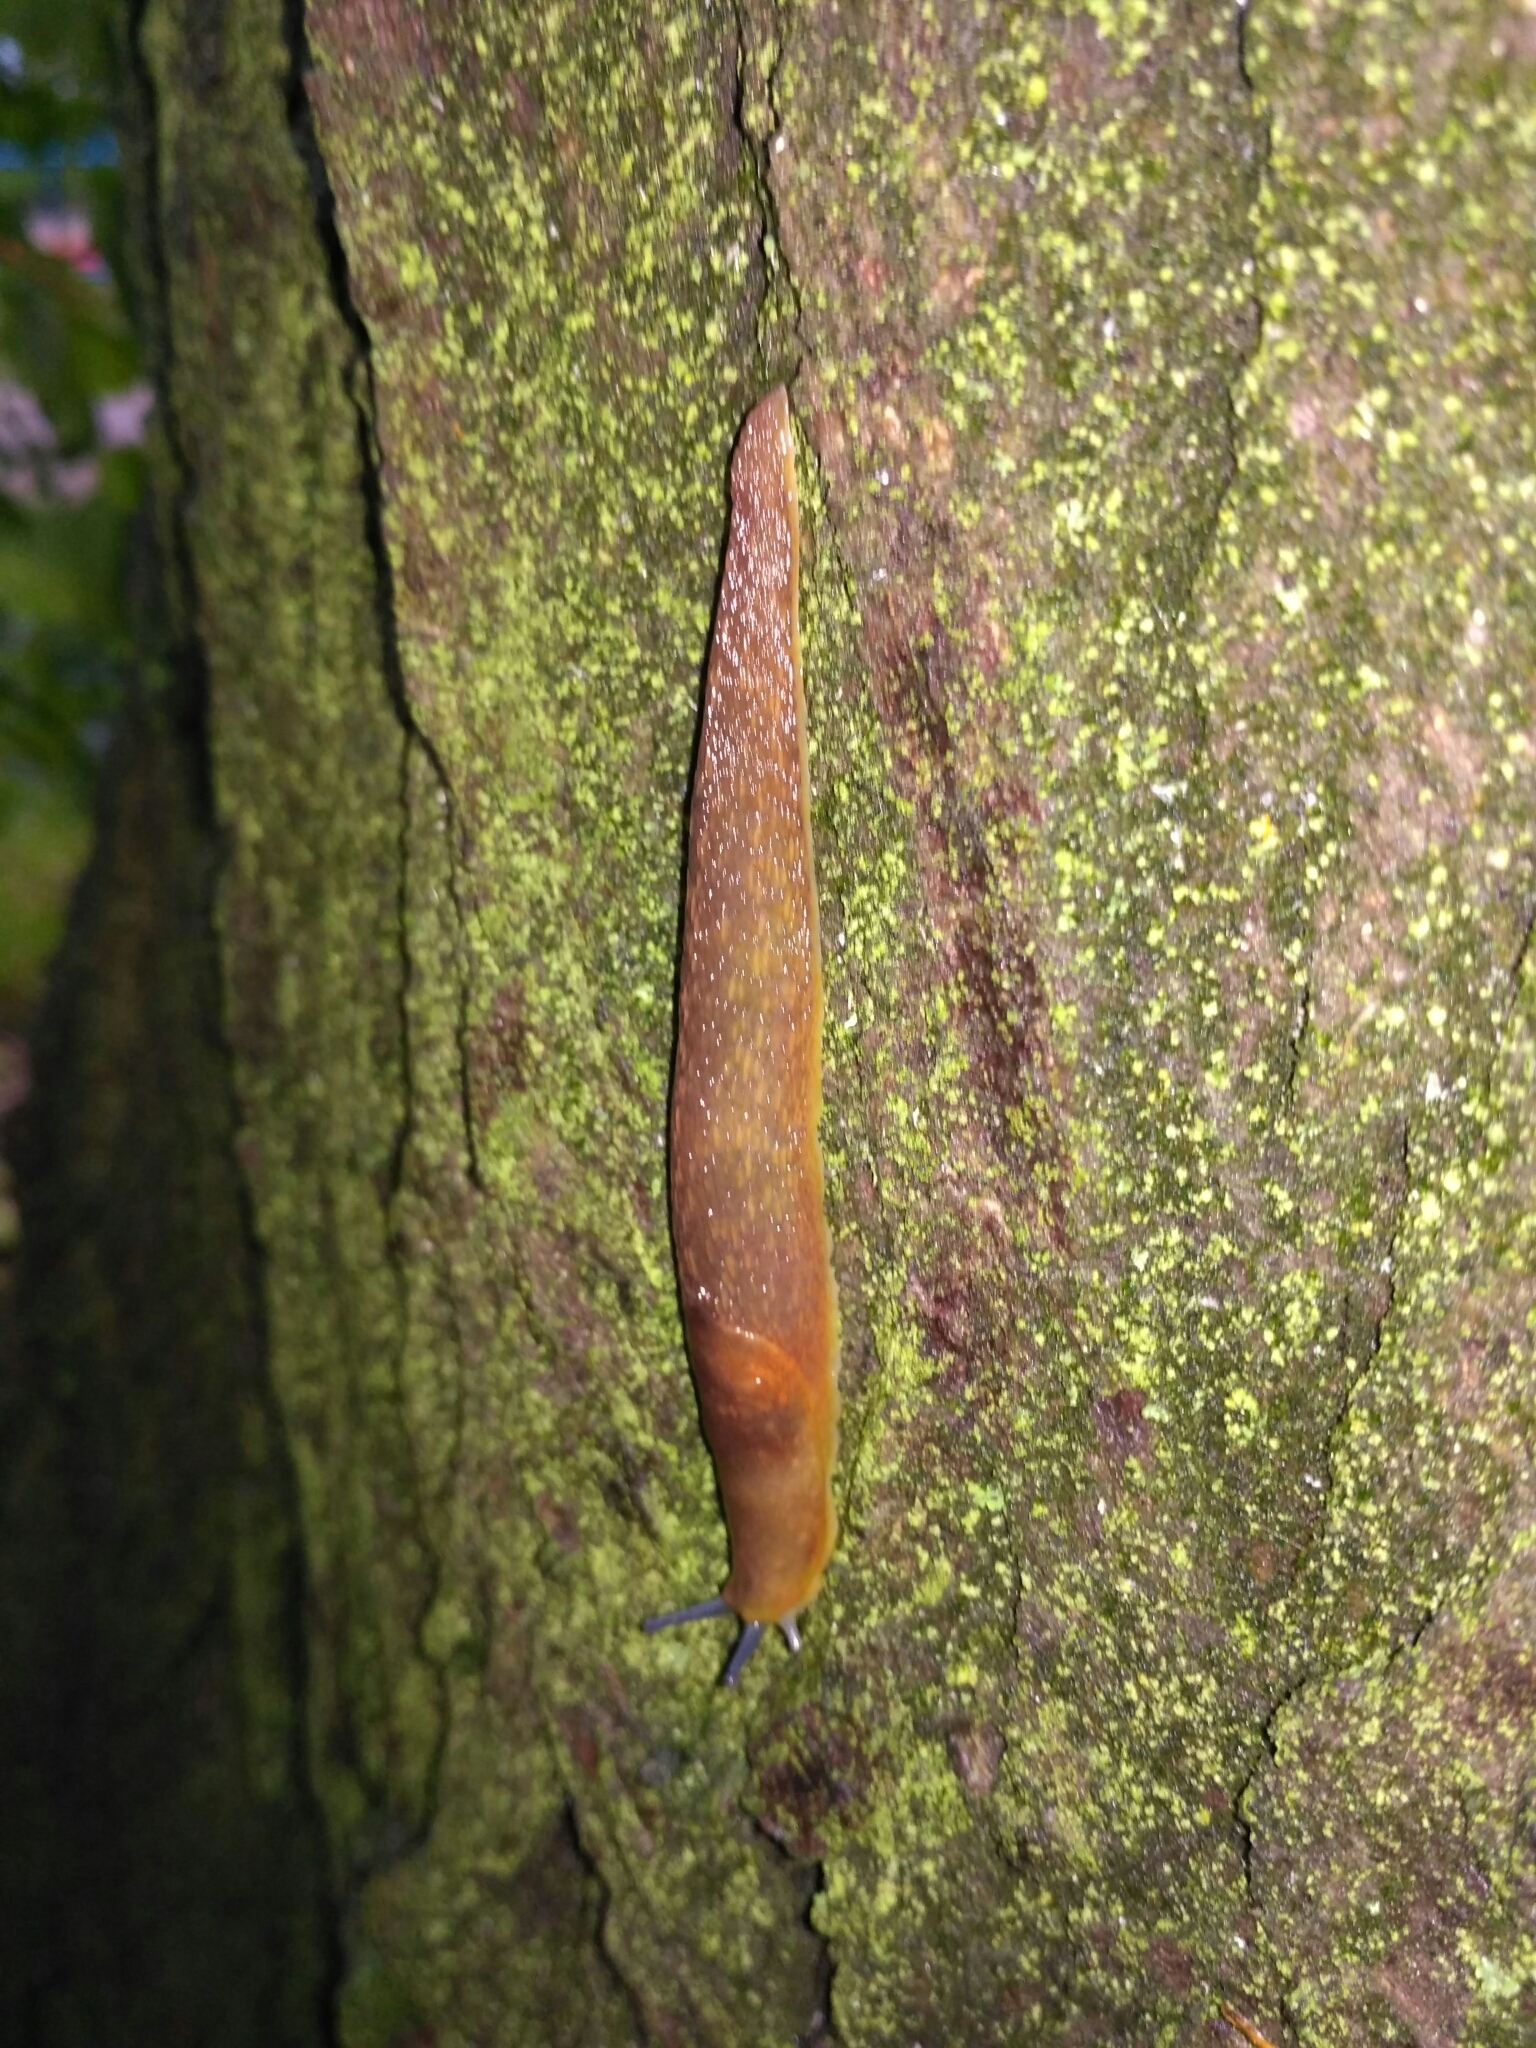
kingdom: Animalia
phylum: Mollusca
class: Gastropoda
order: Stylommatophora
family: Limacidae
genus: Limacus
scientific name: Limacus flavus
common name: Yellow gardenslug
